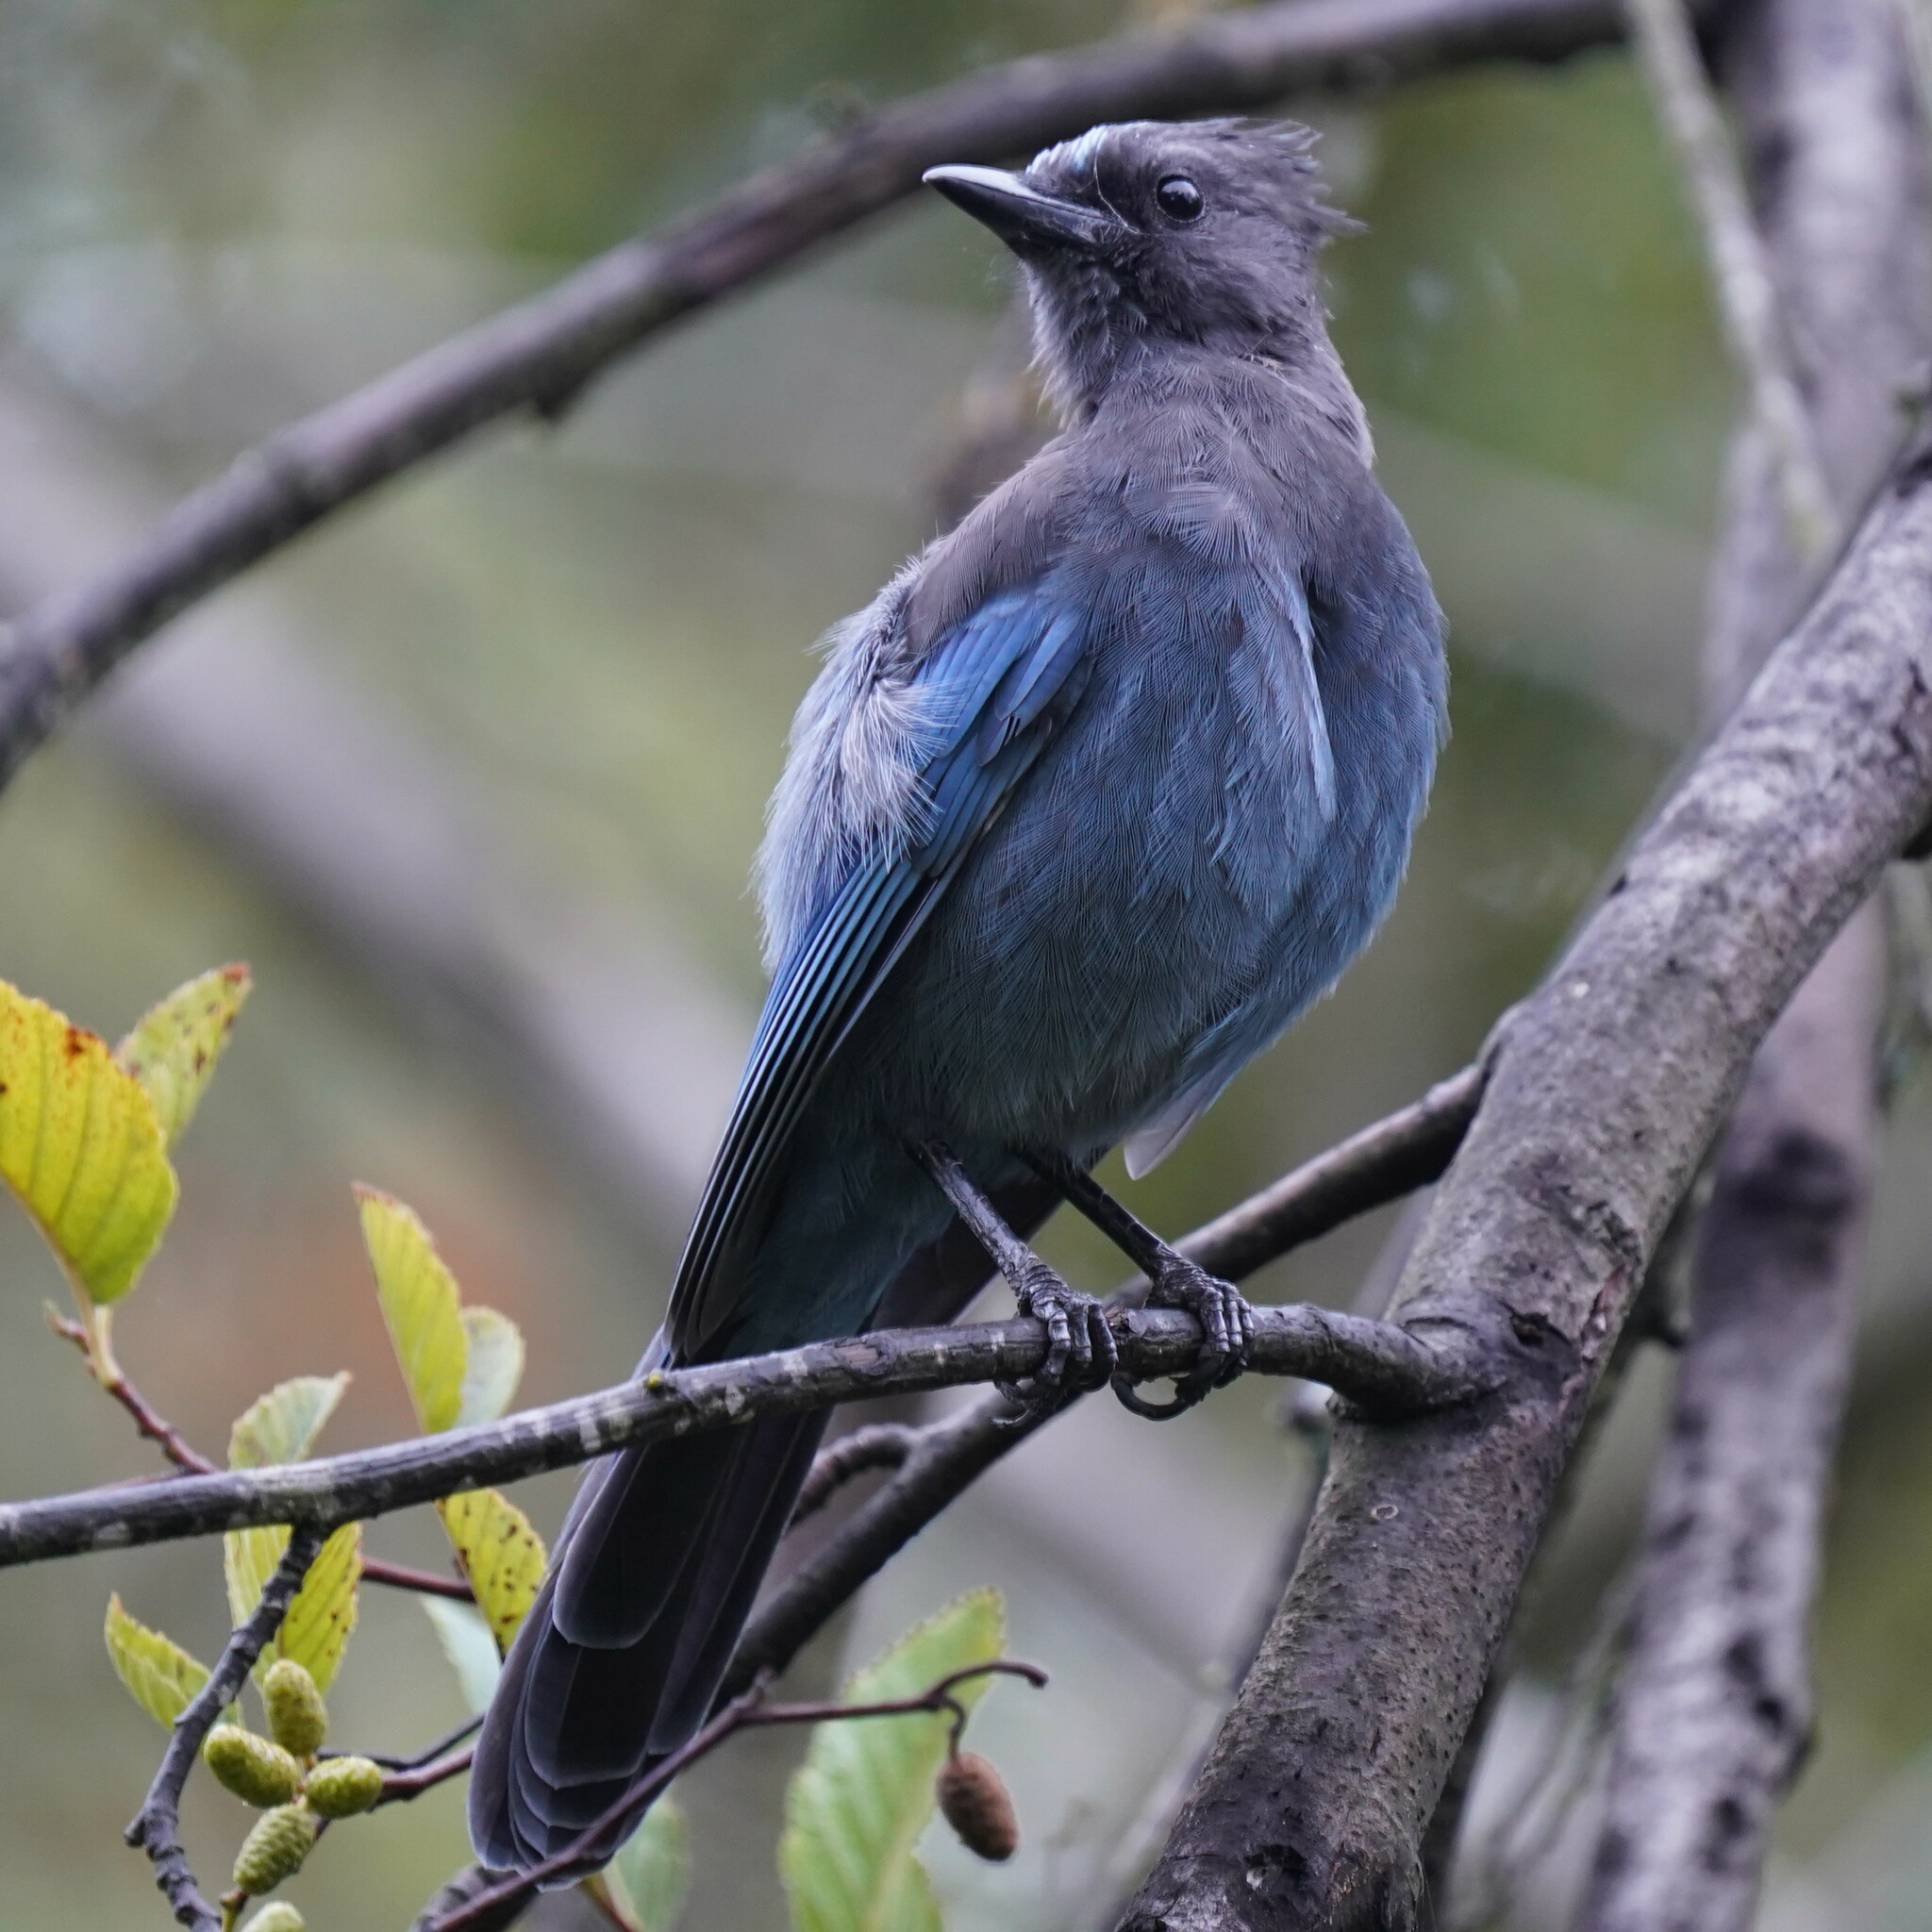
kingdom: Animalia
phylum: Chordata
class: Aves
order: Passeriformes
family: Corvidae
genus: Cyanocitta
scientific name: Cyanocitta stelleri
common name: Steller's jay
